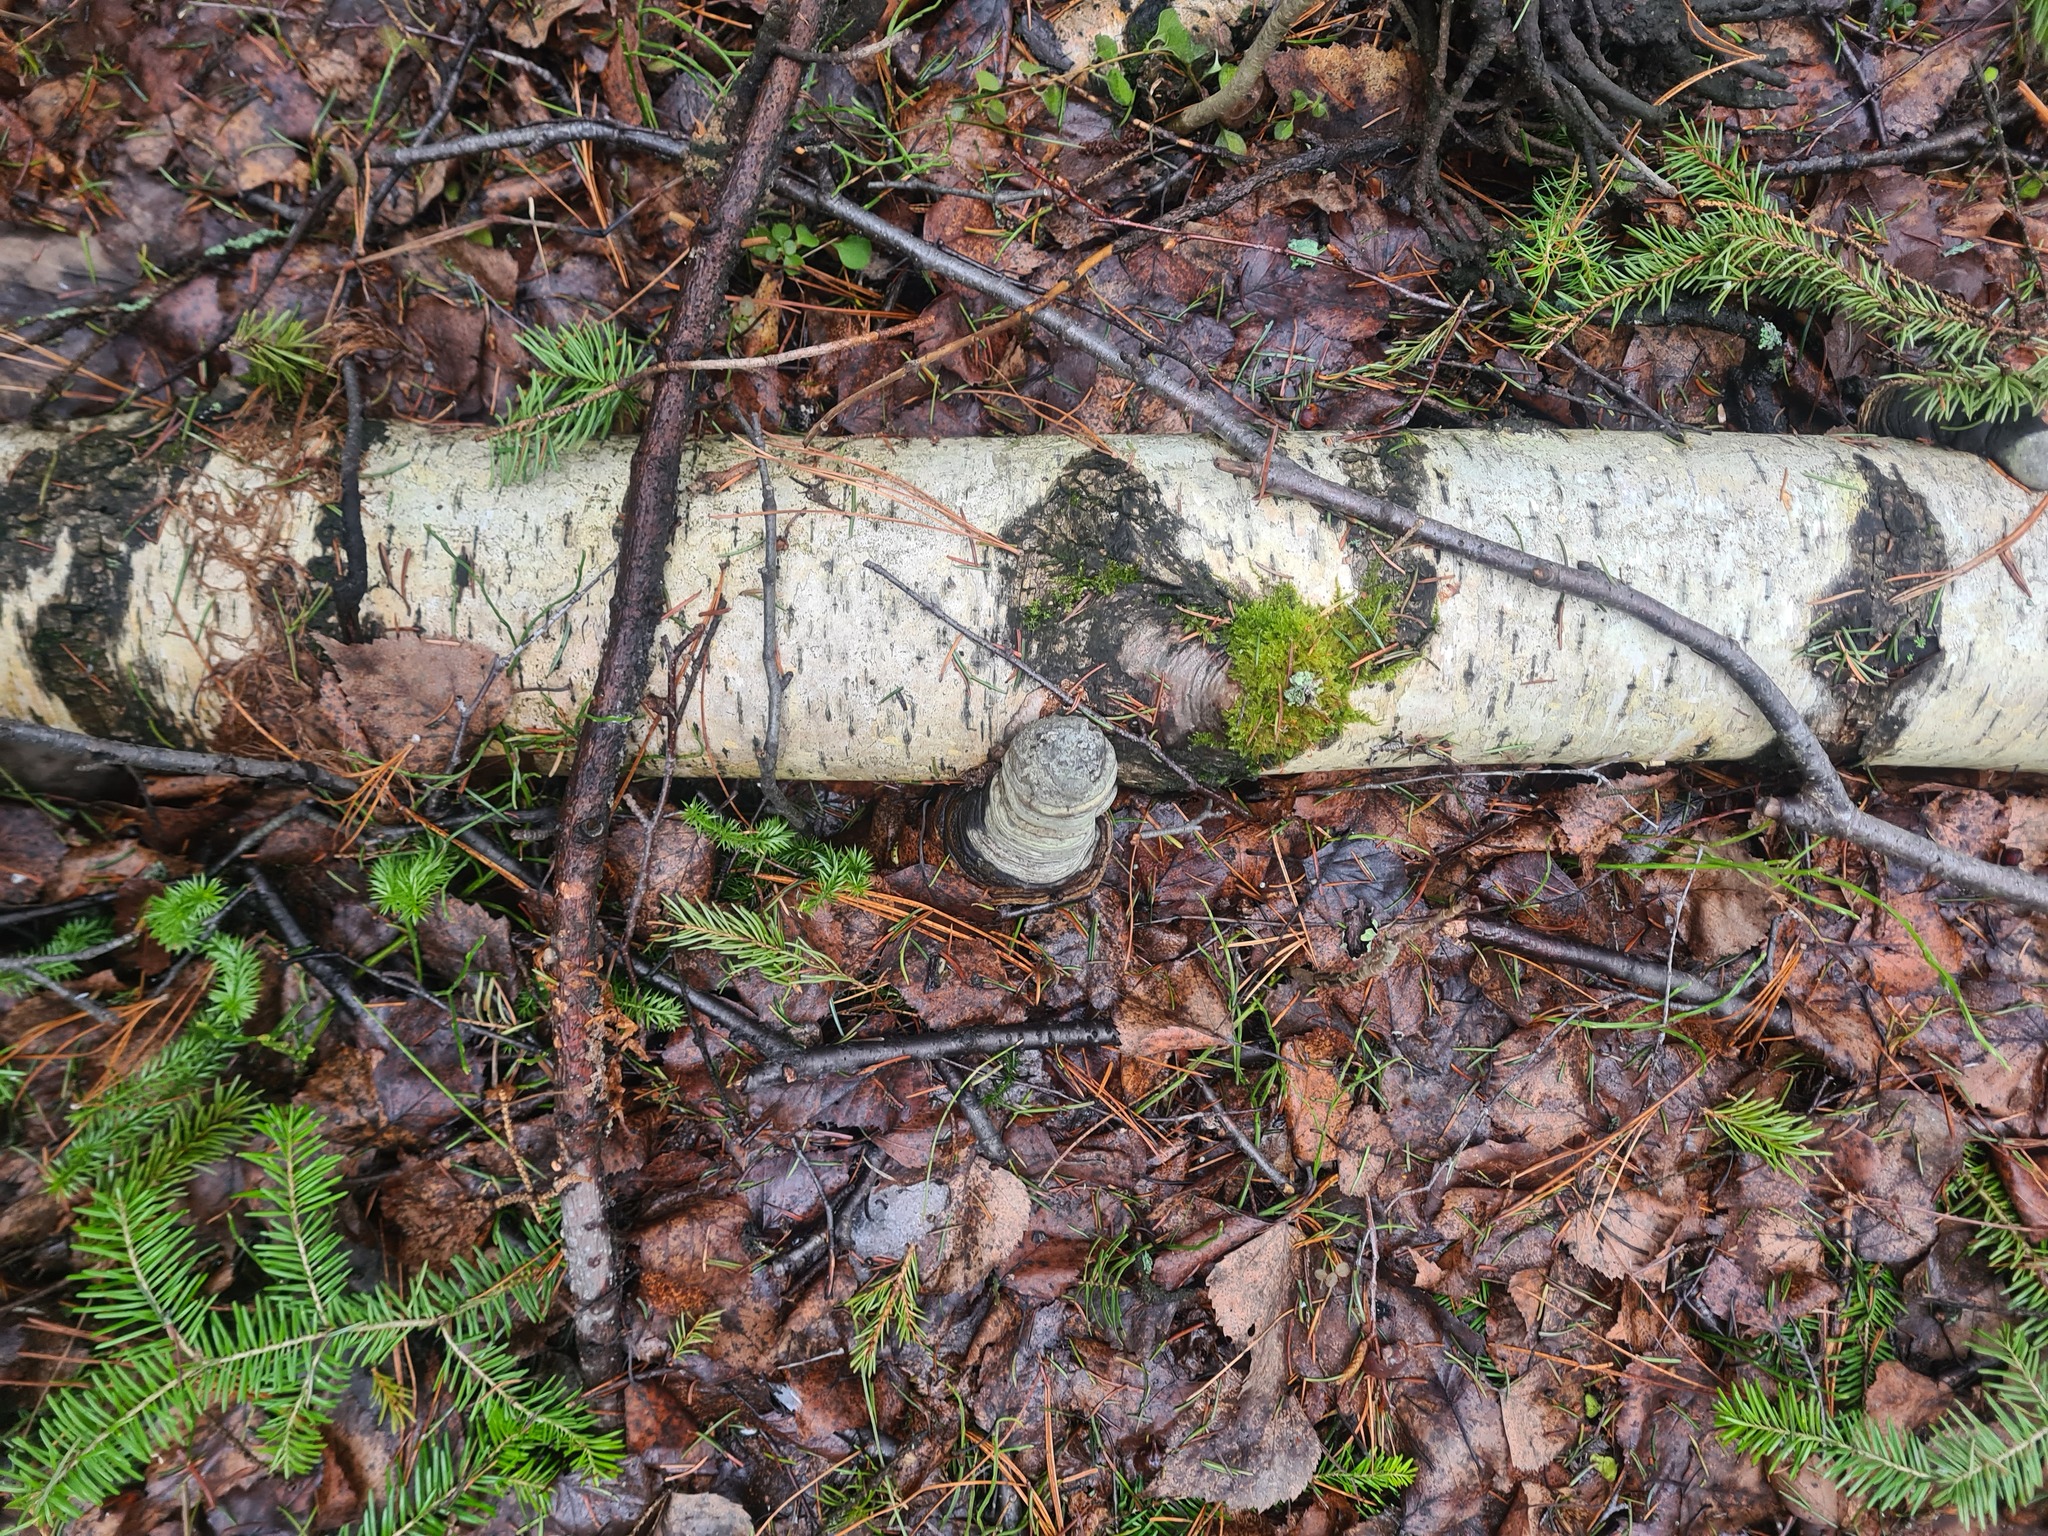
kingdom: Fungi
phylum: Basidiomycota
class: Agaricomycetes
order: Polyporales
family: Polyporaceae
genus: Fomes
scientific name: Fomes fomentarius
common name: Hoof fungus
